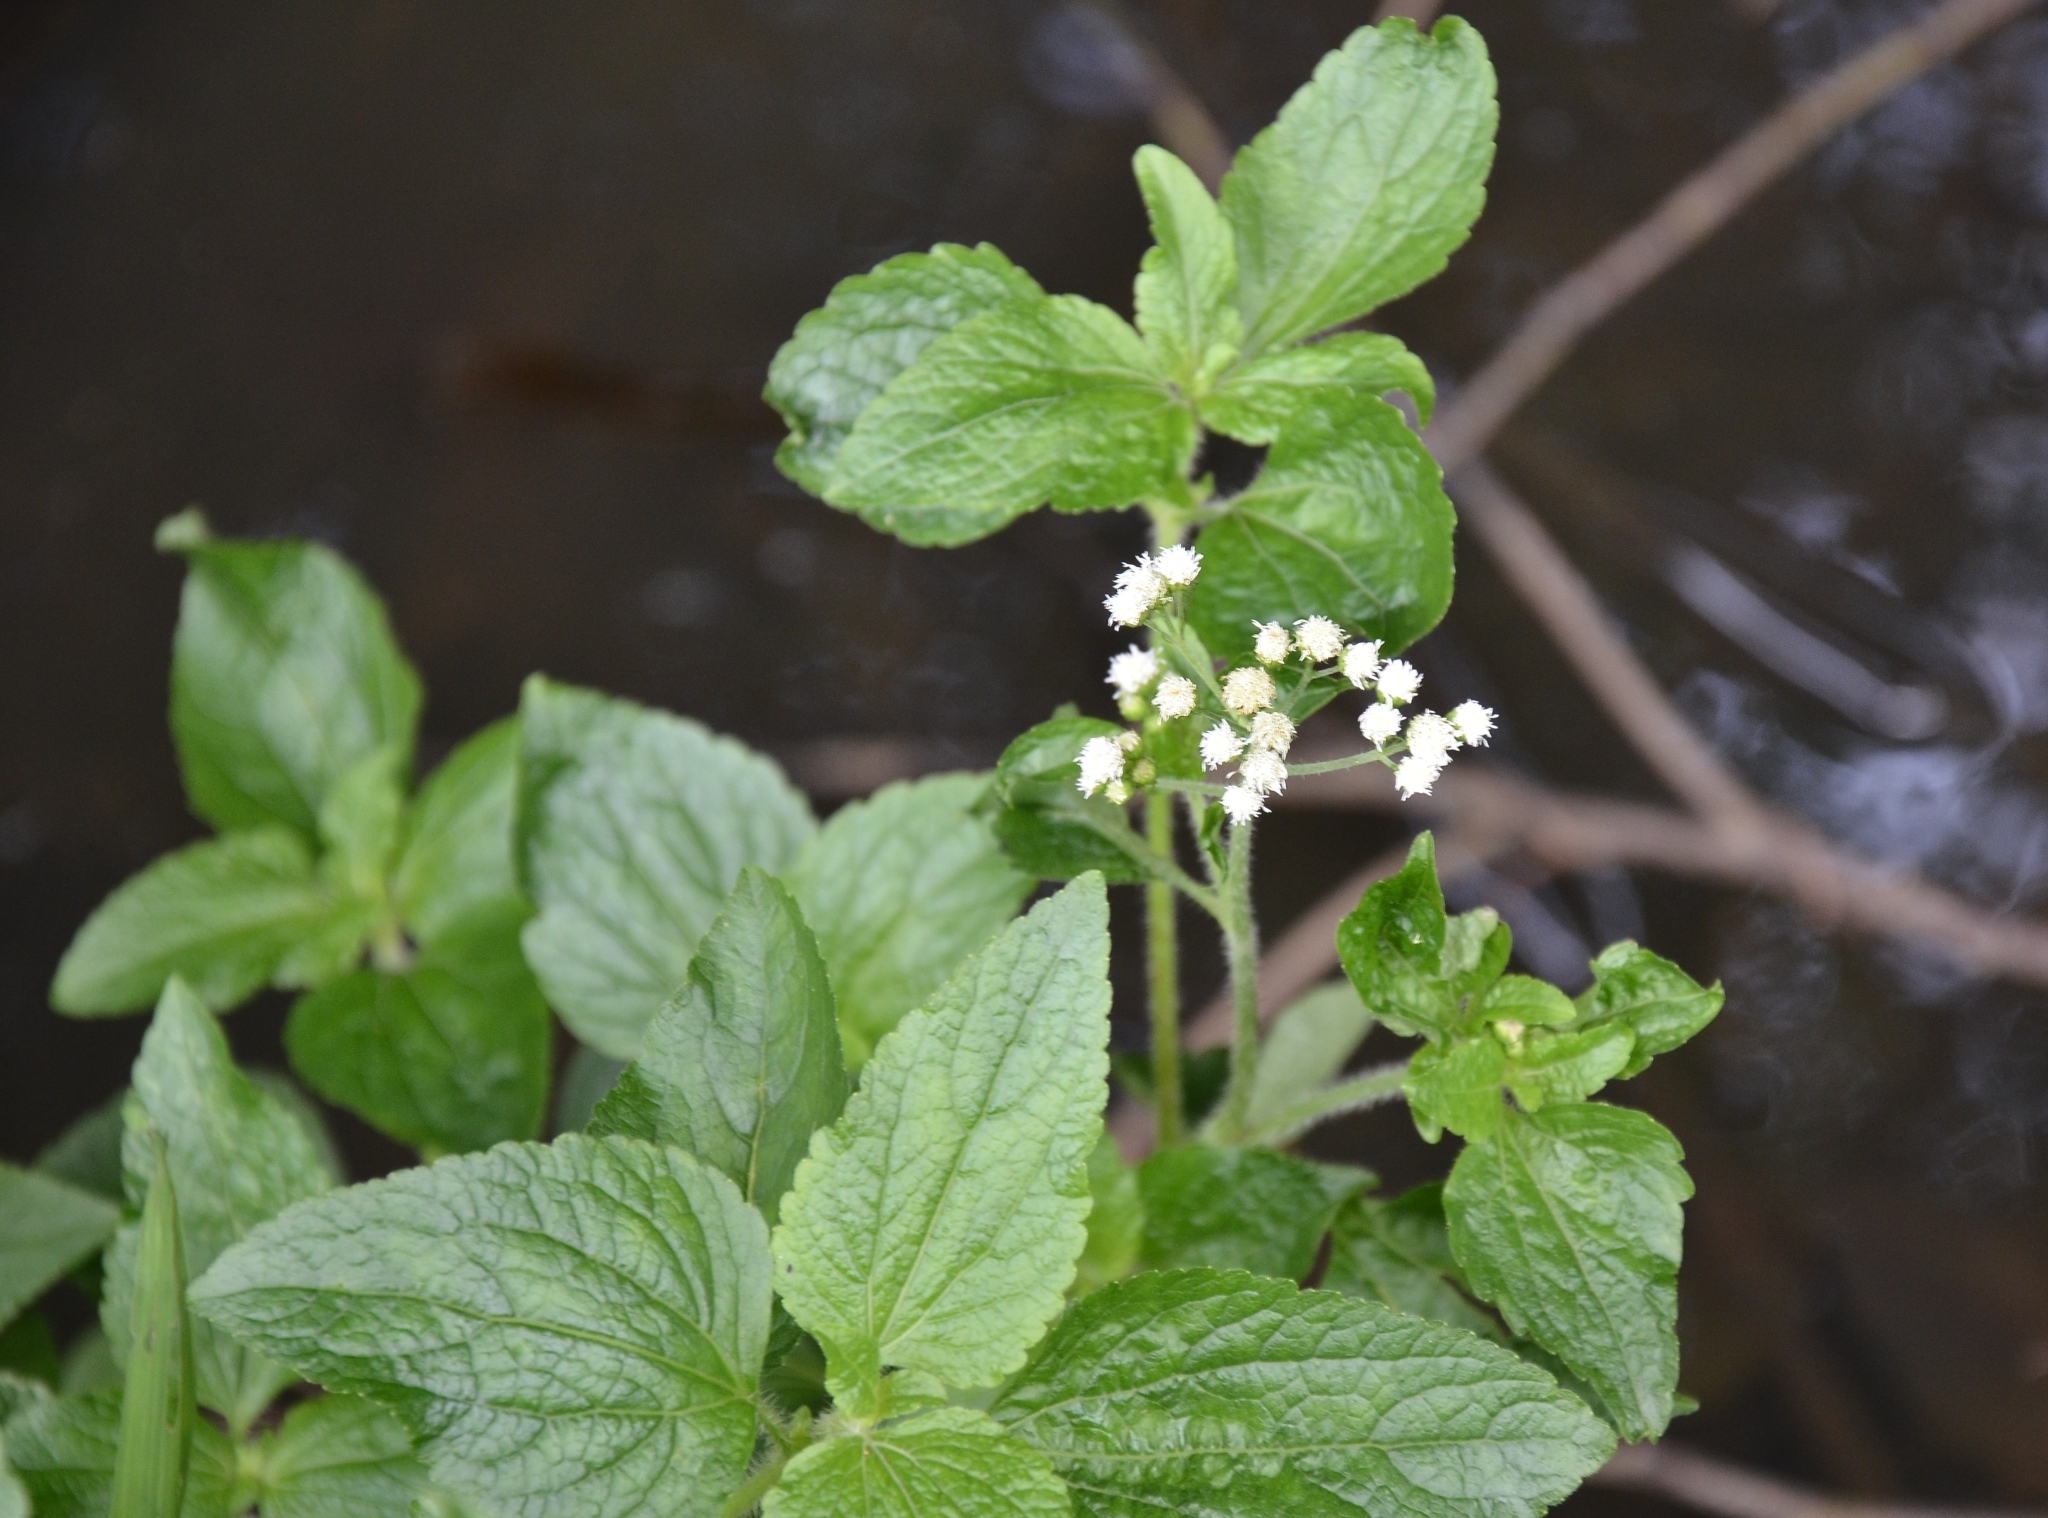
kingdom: Plantae
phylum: Tracheophyta
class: Magnoliopsida
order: Asterales
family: Asteraceae
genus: Ageratum
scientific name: Ageratum conyzoides
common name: Tropical whiteweed
